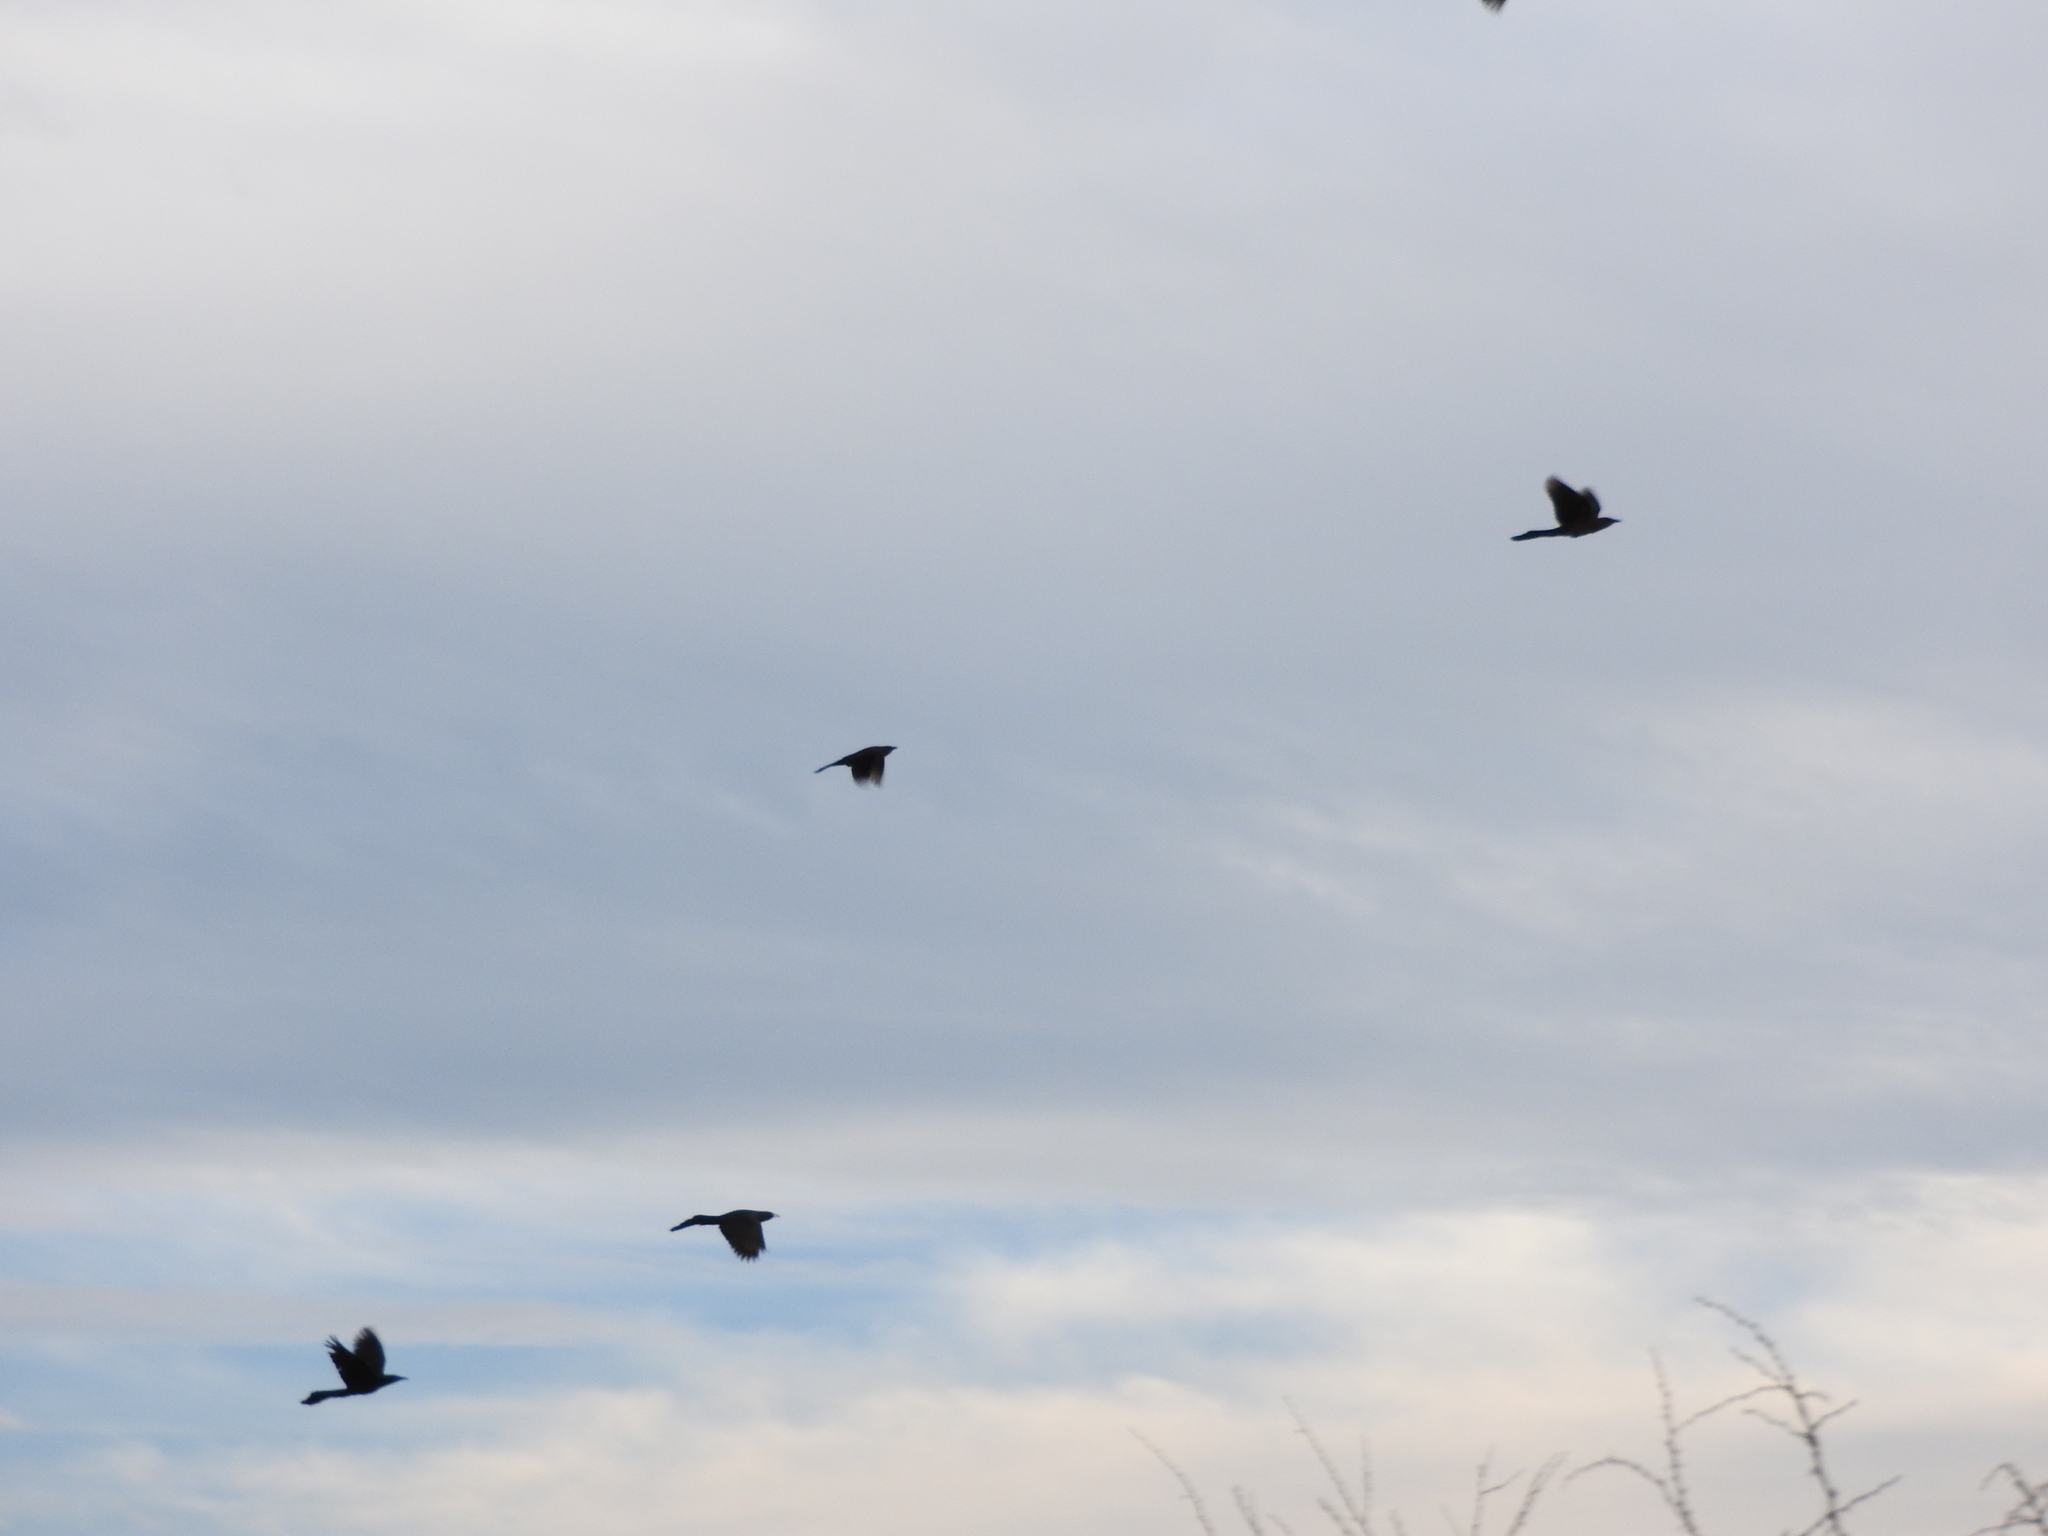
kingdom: Animalia
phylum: Chordata
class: Aves
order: Passeriformes
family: Icteridae
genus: Quiscalus
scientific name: Quiscalus mexicanus
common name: Great-tailed grackle
